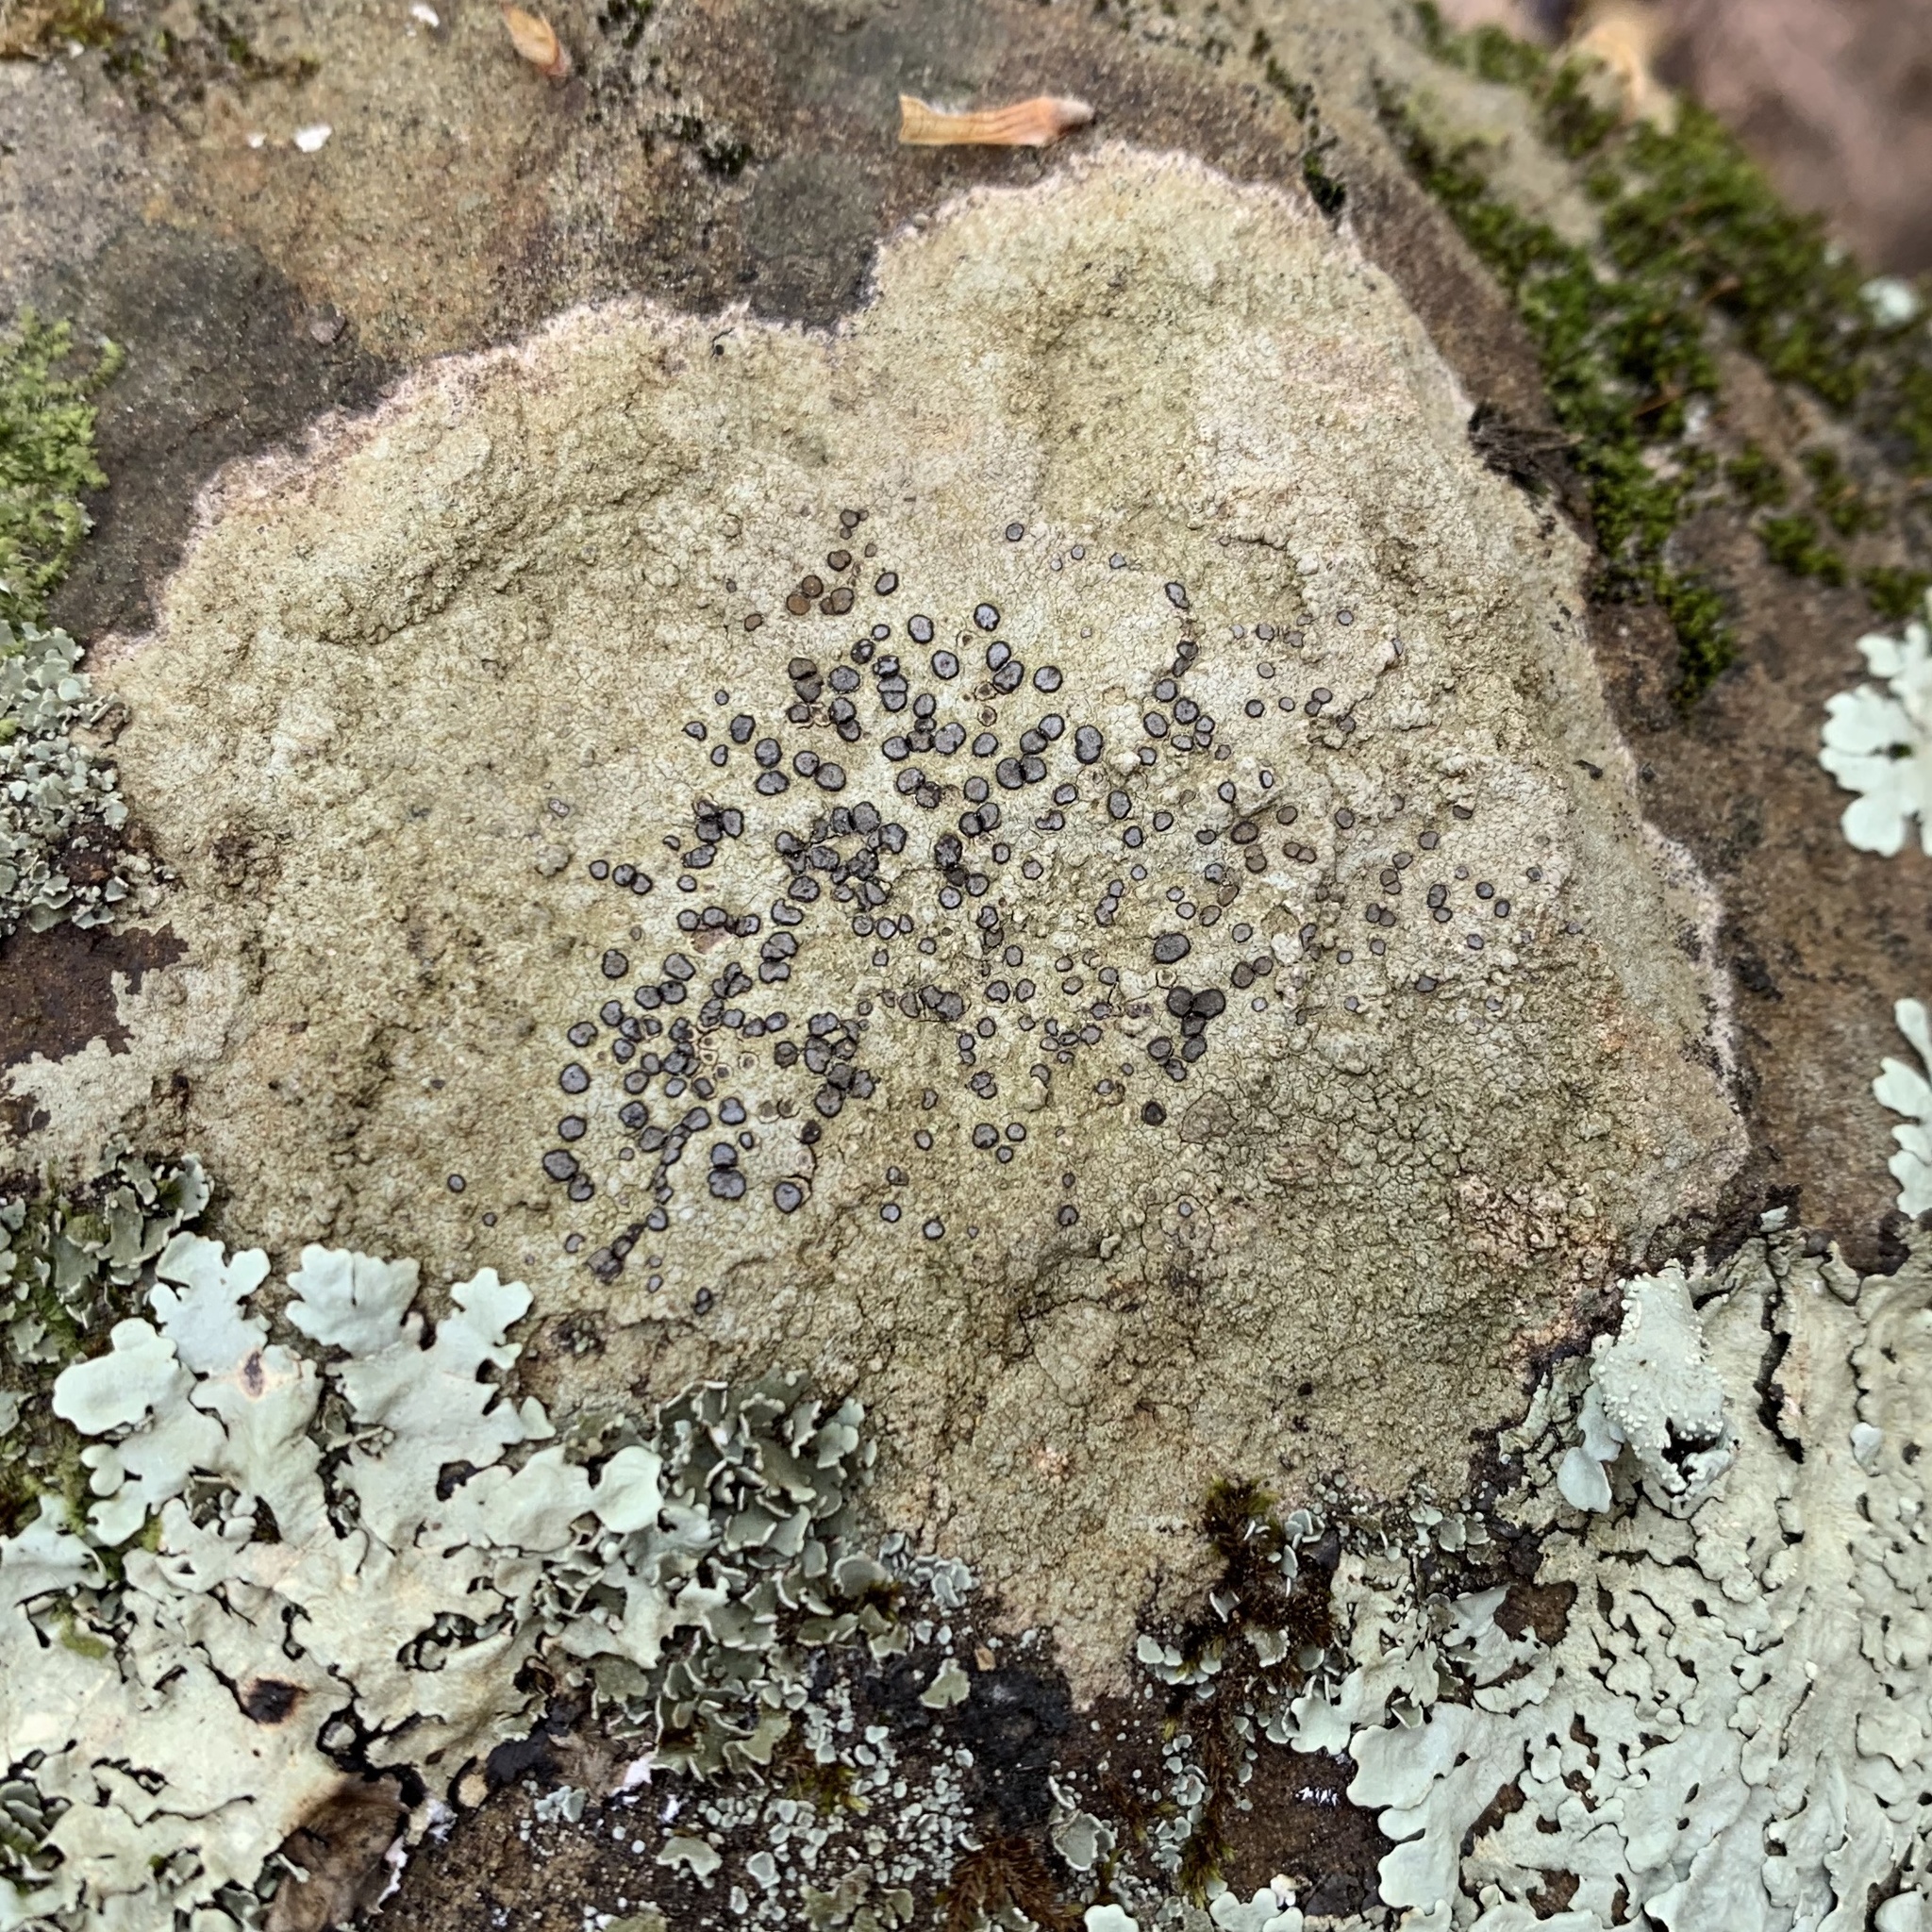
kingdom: Fungi
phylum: Ascomycota
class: Lecanoromycetes
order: Lecideales
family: Lecideaceae
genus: Porpidia
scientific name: Porpidia albocaerulescens
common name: Smokey-eyed boulder lichen
